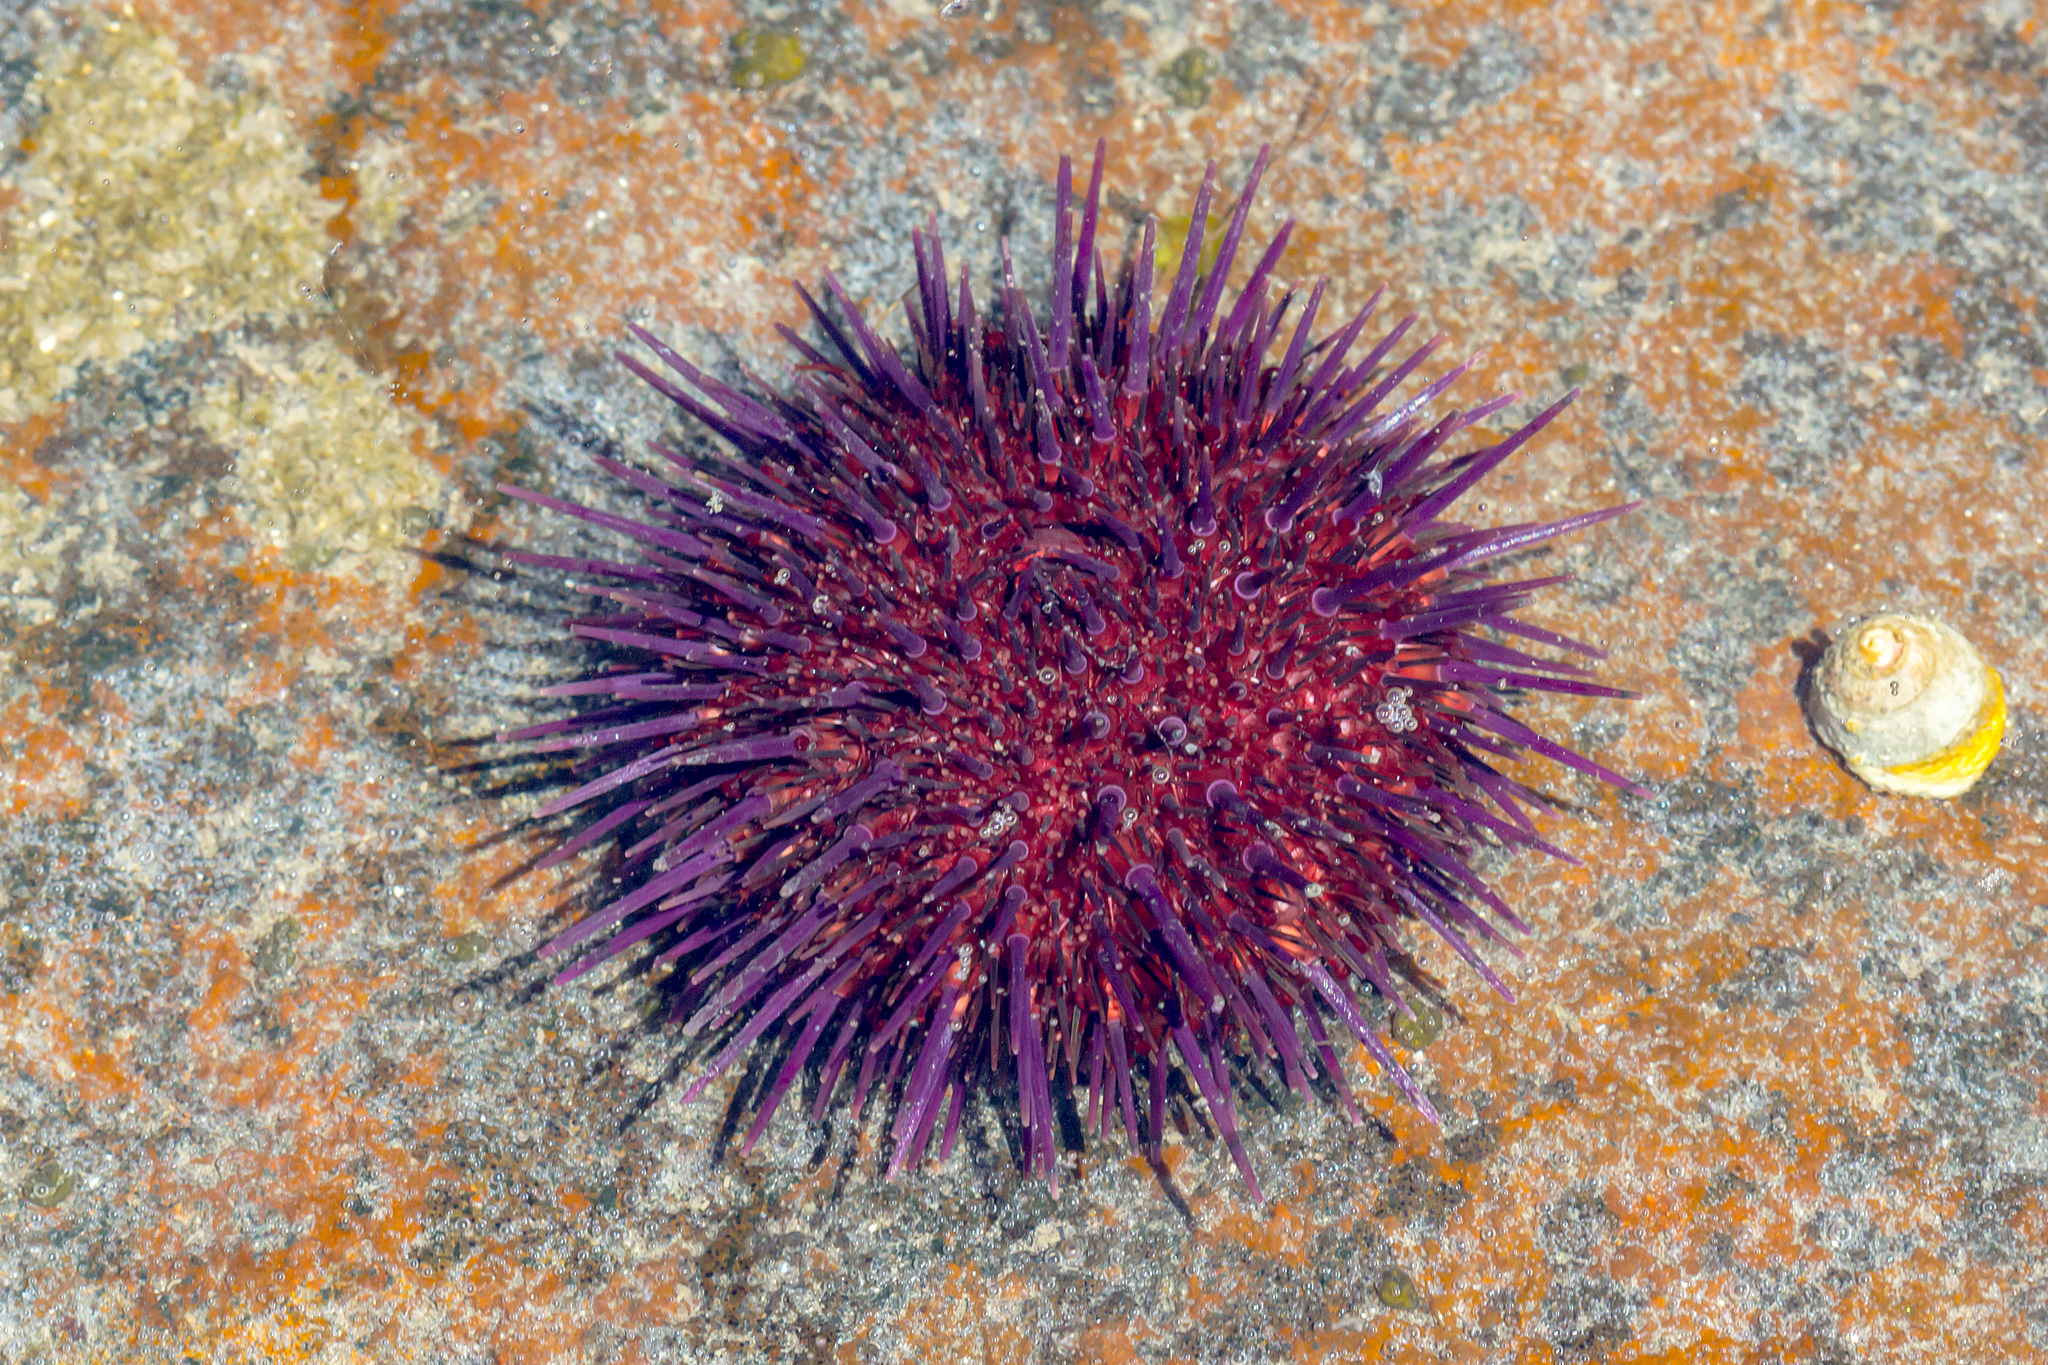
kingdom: Animalia
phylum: Echinodermata
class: Echinoidea
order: Camarodonta
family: Echinometridae
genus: Heliocidaris
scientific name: Heliocidaris erythrogramma
